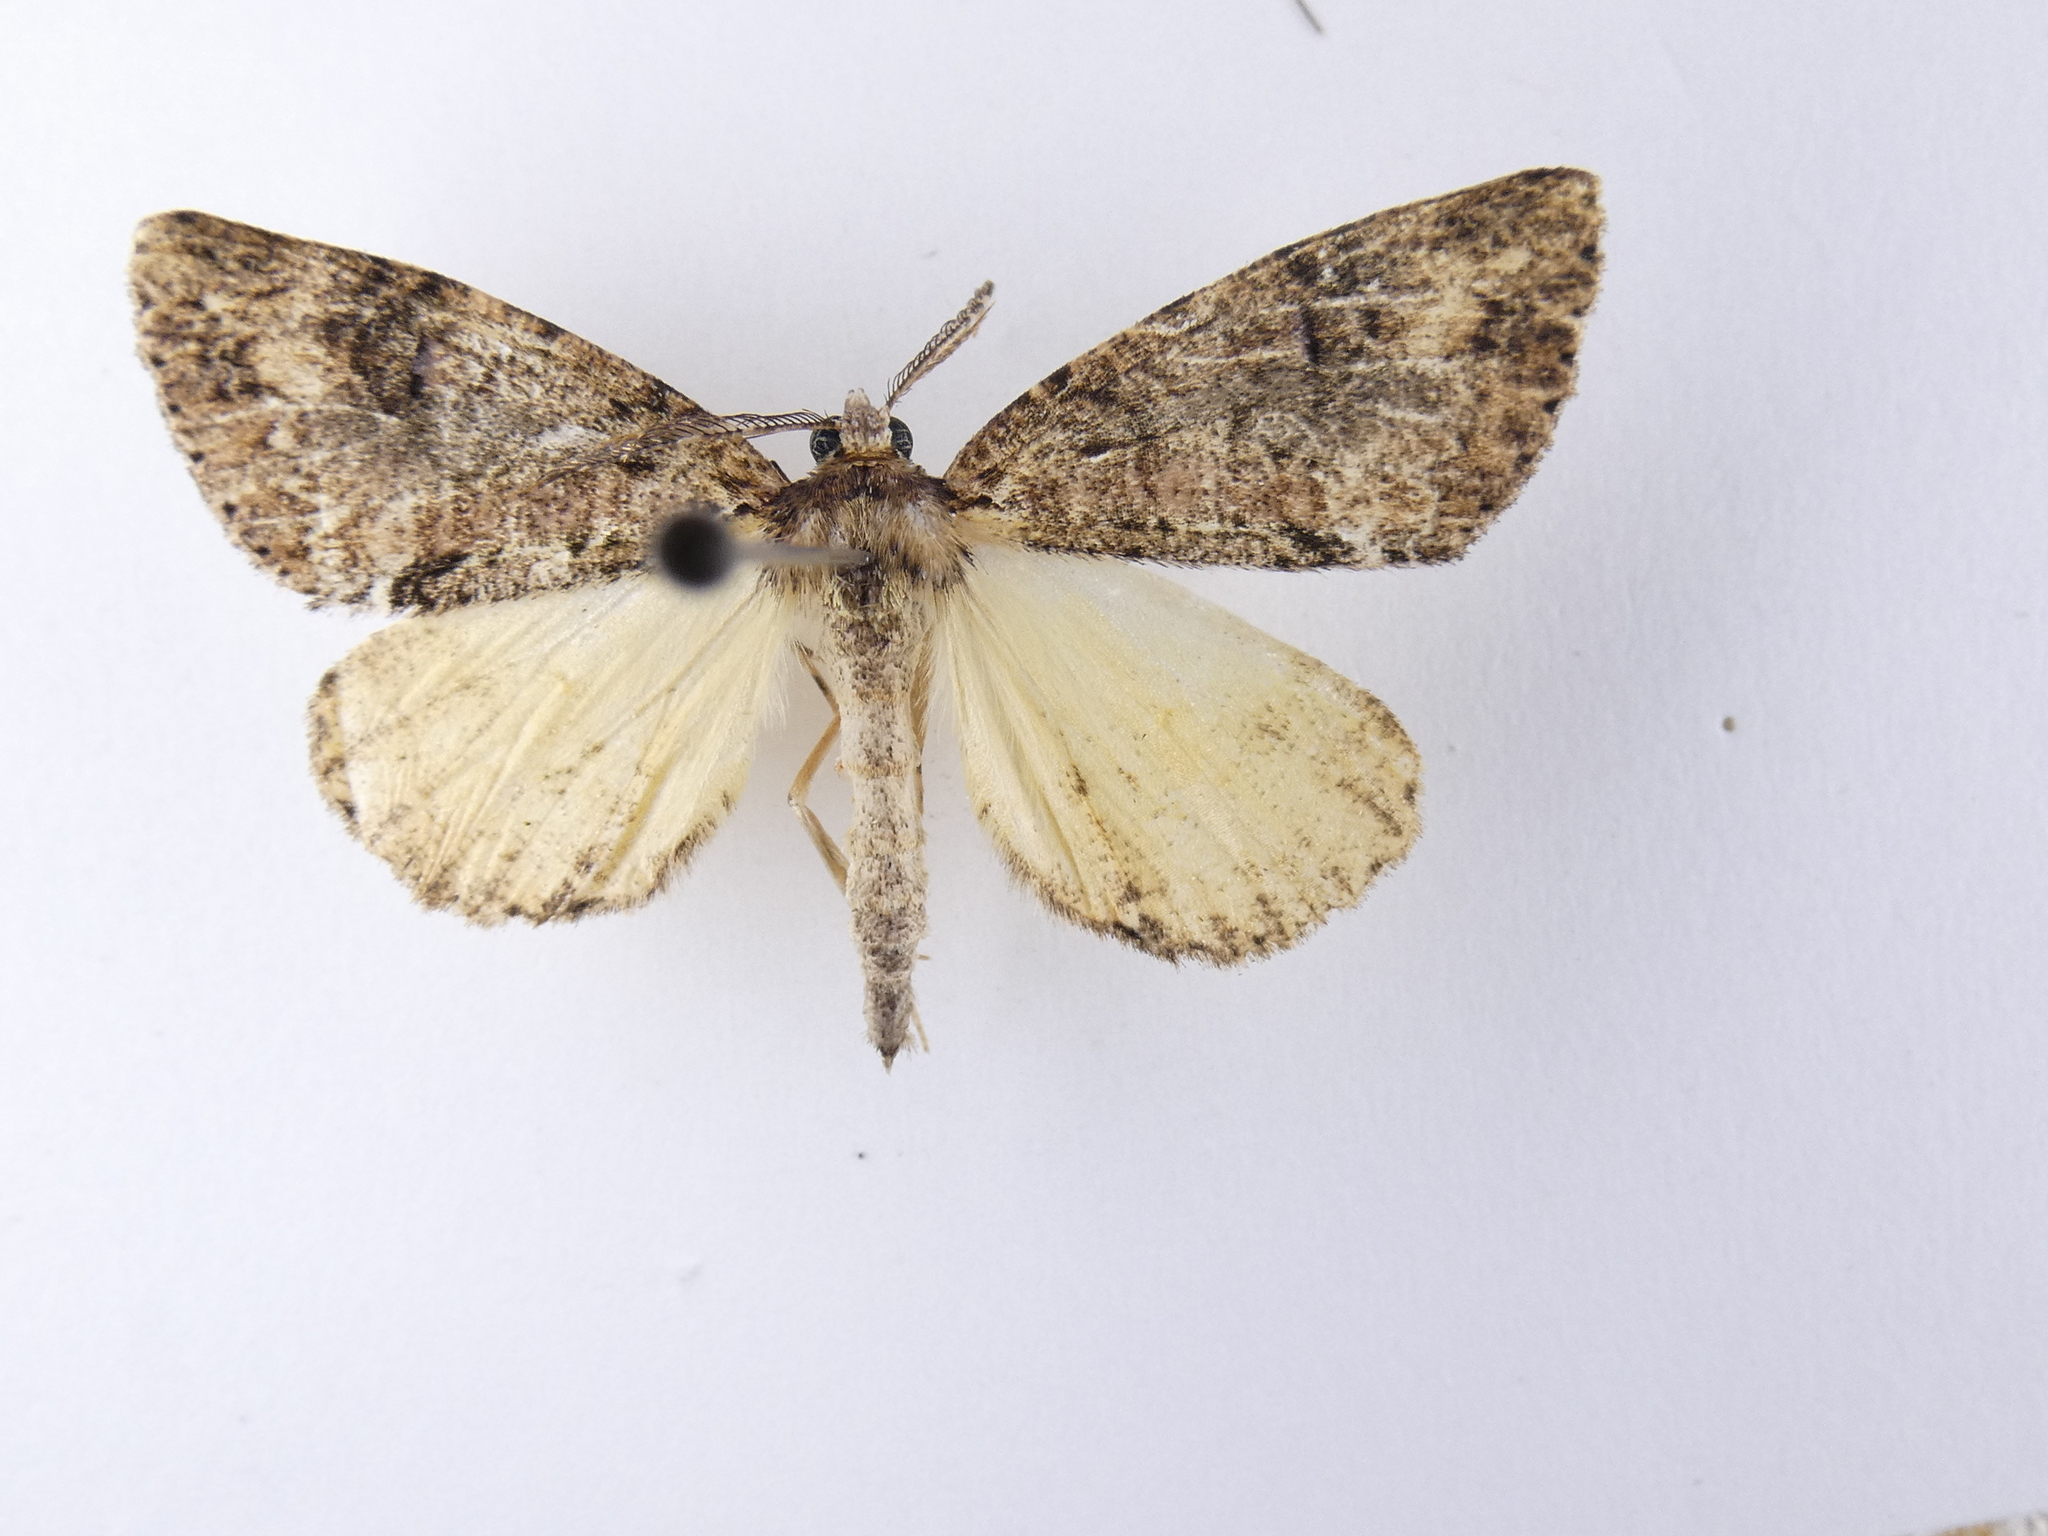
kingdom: Animalia
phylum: Arthropoda
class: Insecta
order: Lepidoptera
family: Geometridae
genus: Pseudocoremia
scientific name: Pseudocoremia suavis
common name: Common forest looper
